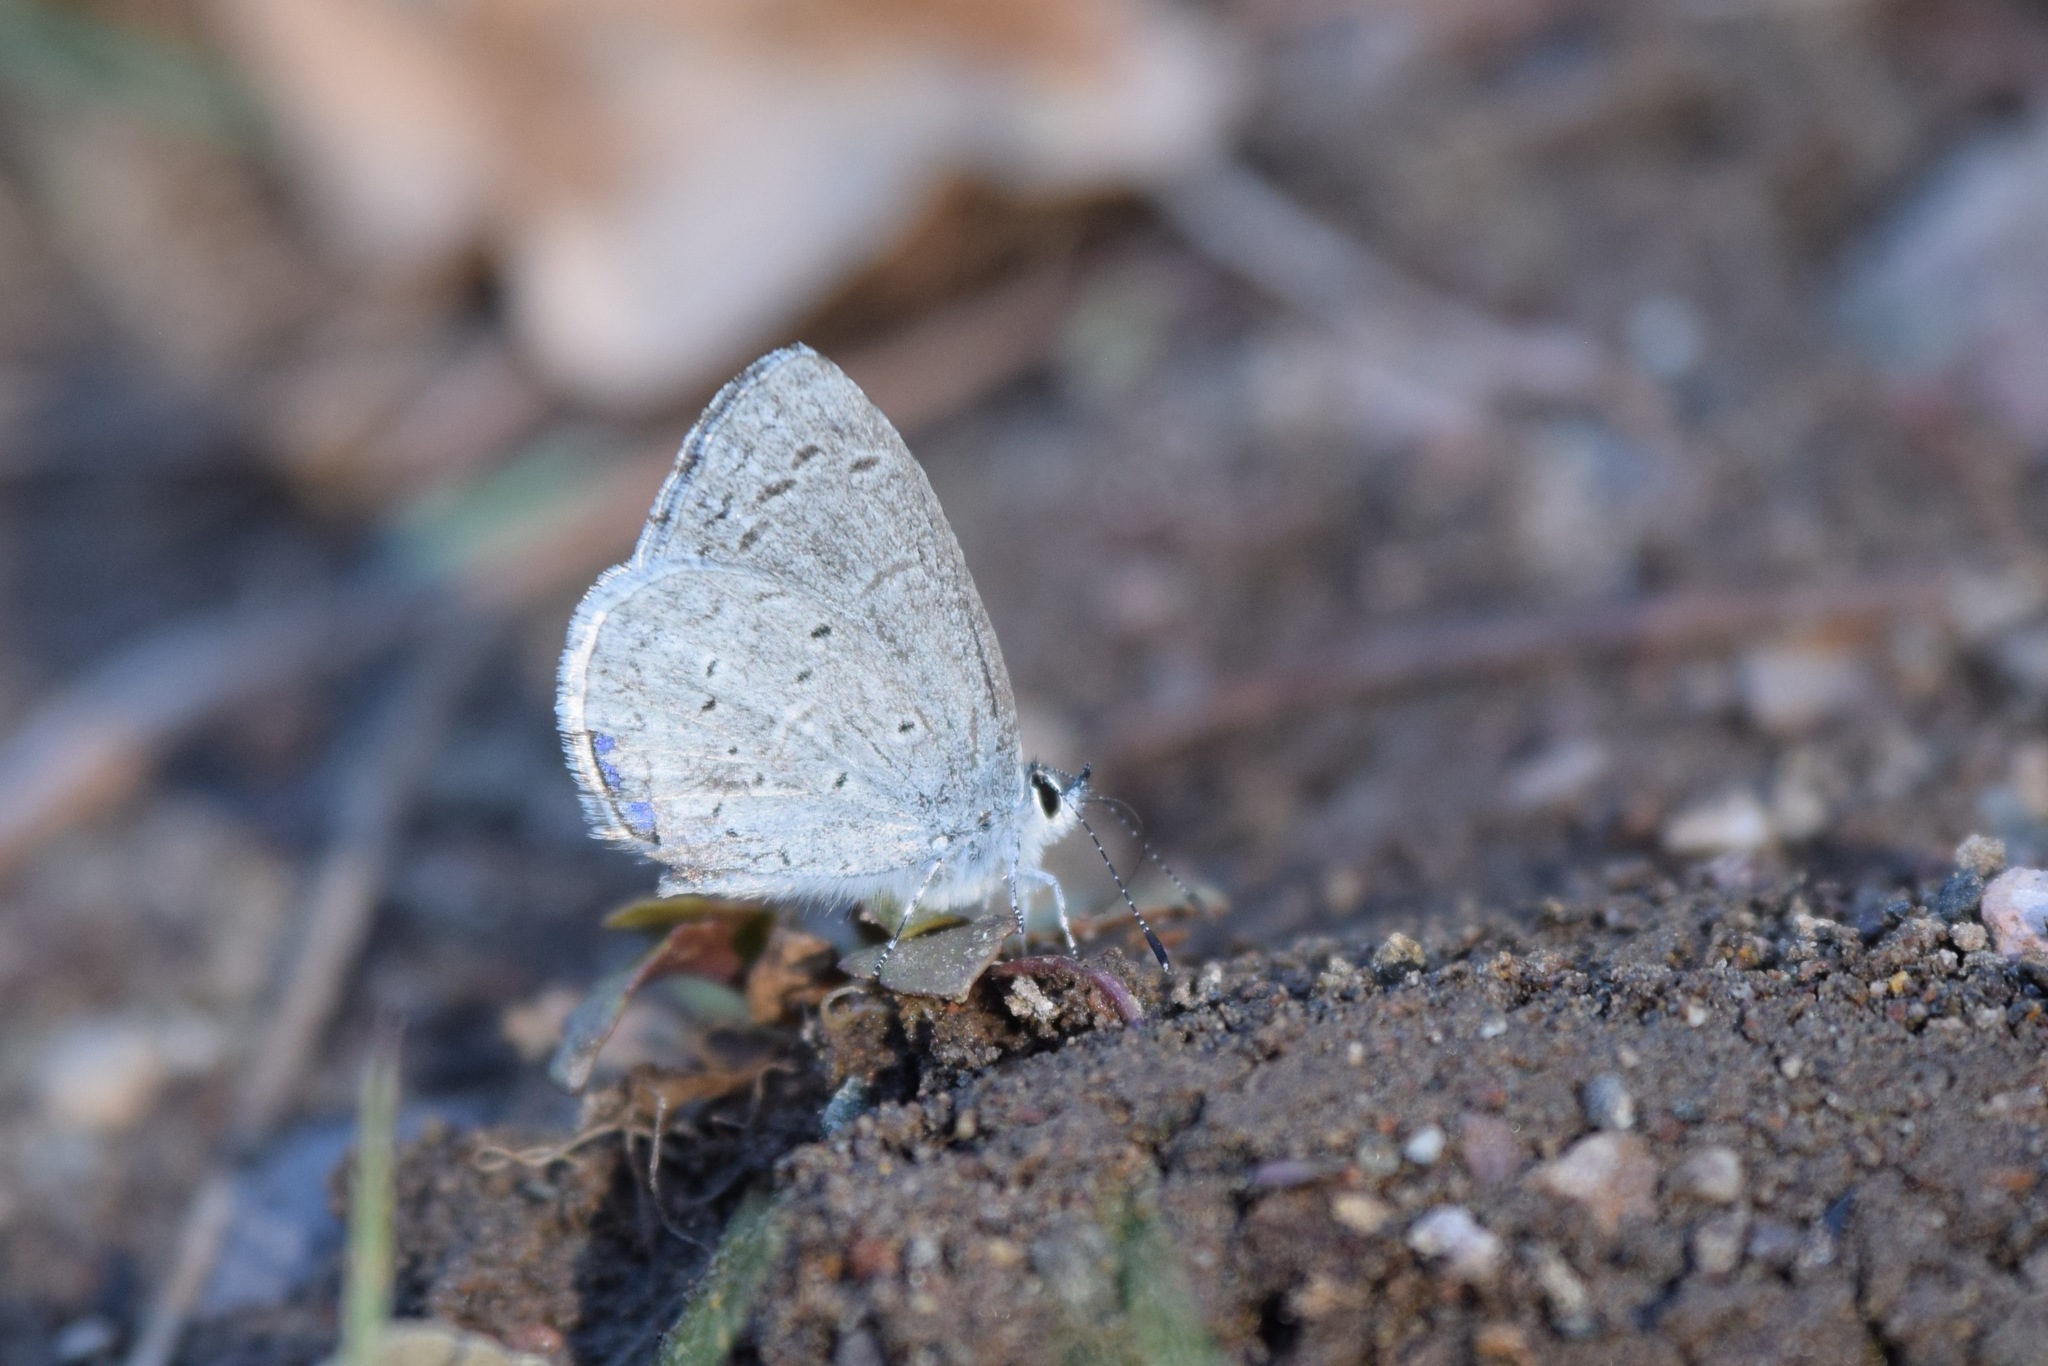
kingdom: Animalia
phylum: Arthropoda
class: Insecta
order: Lepidoptera
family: Lycaenidae
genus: Celastrina
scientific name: Celastrina argiolus
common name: Holly blue
